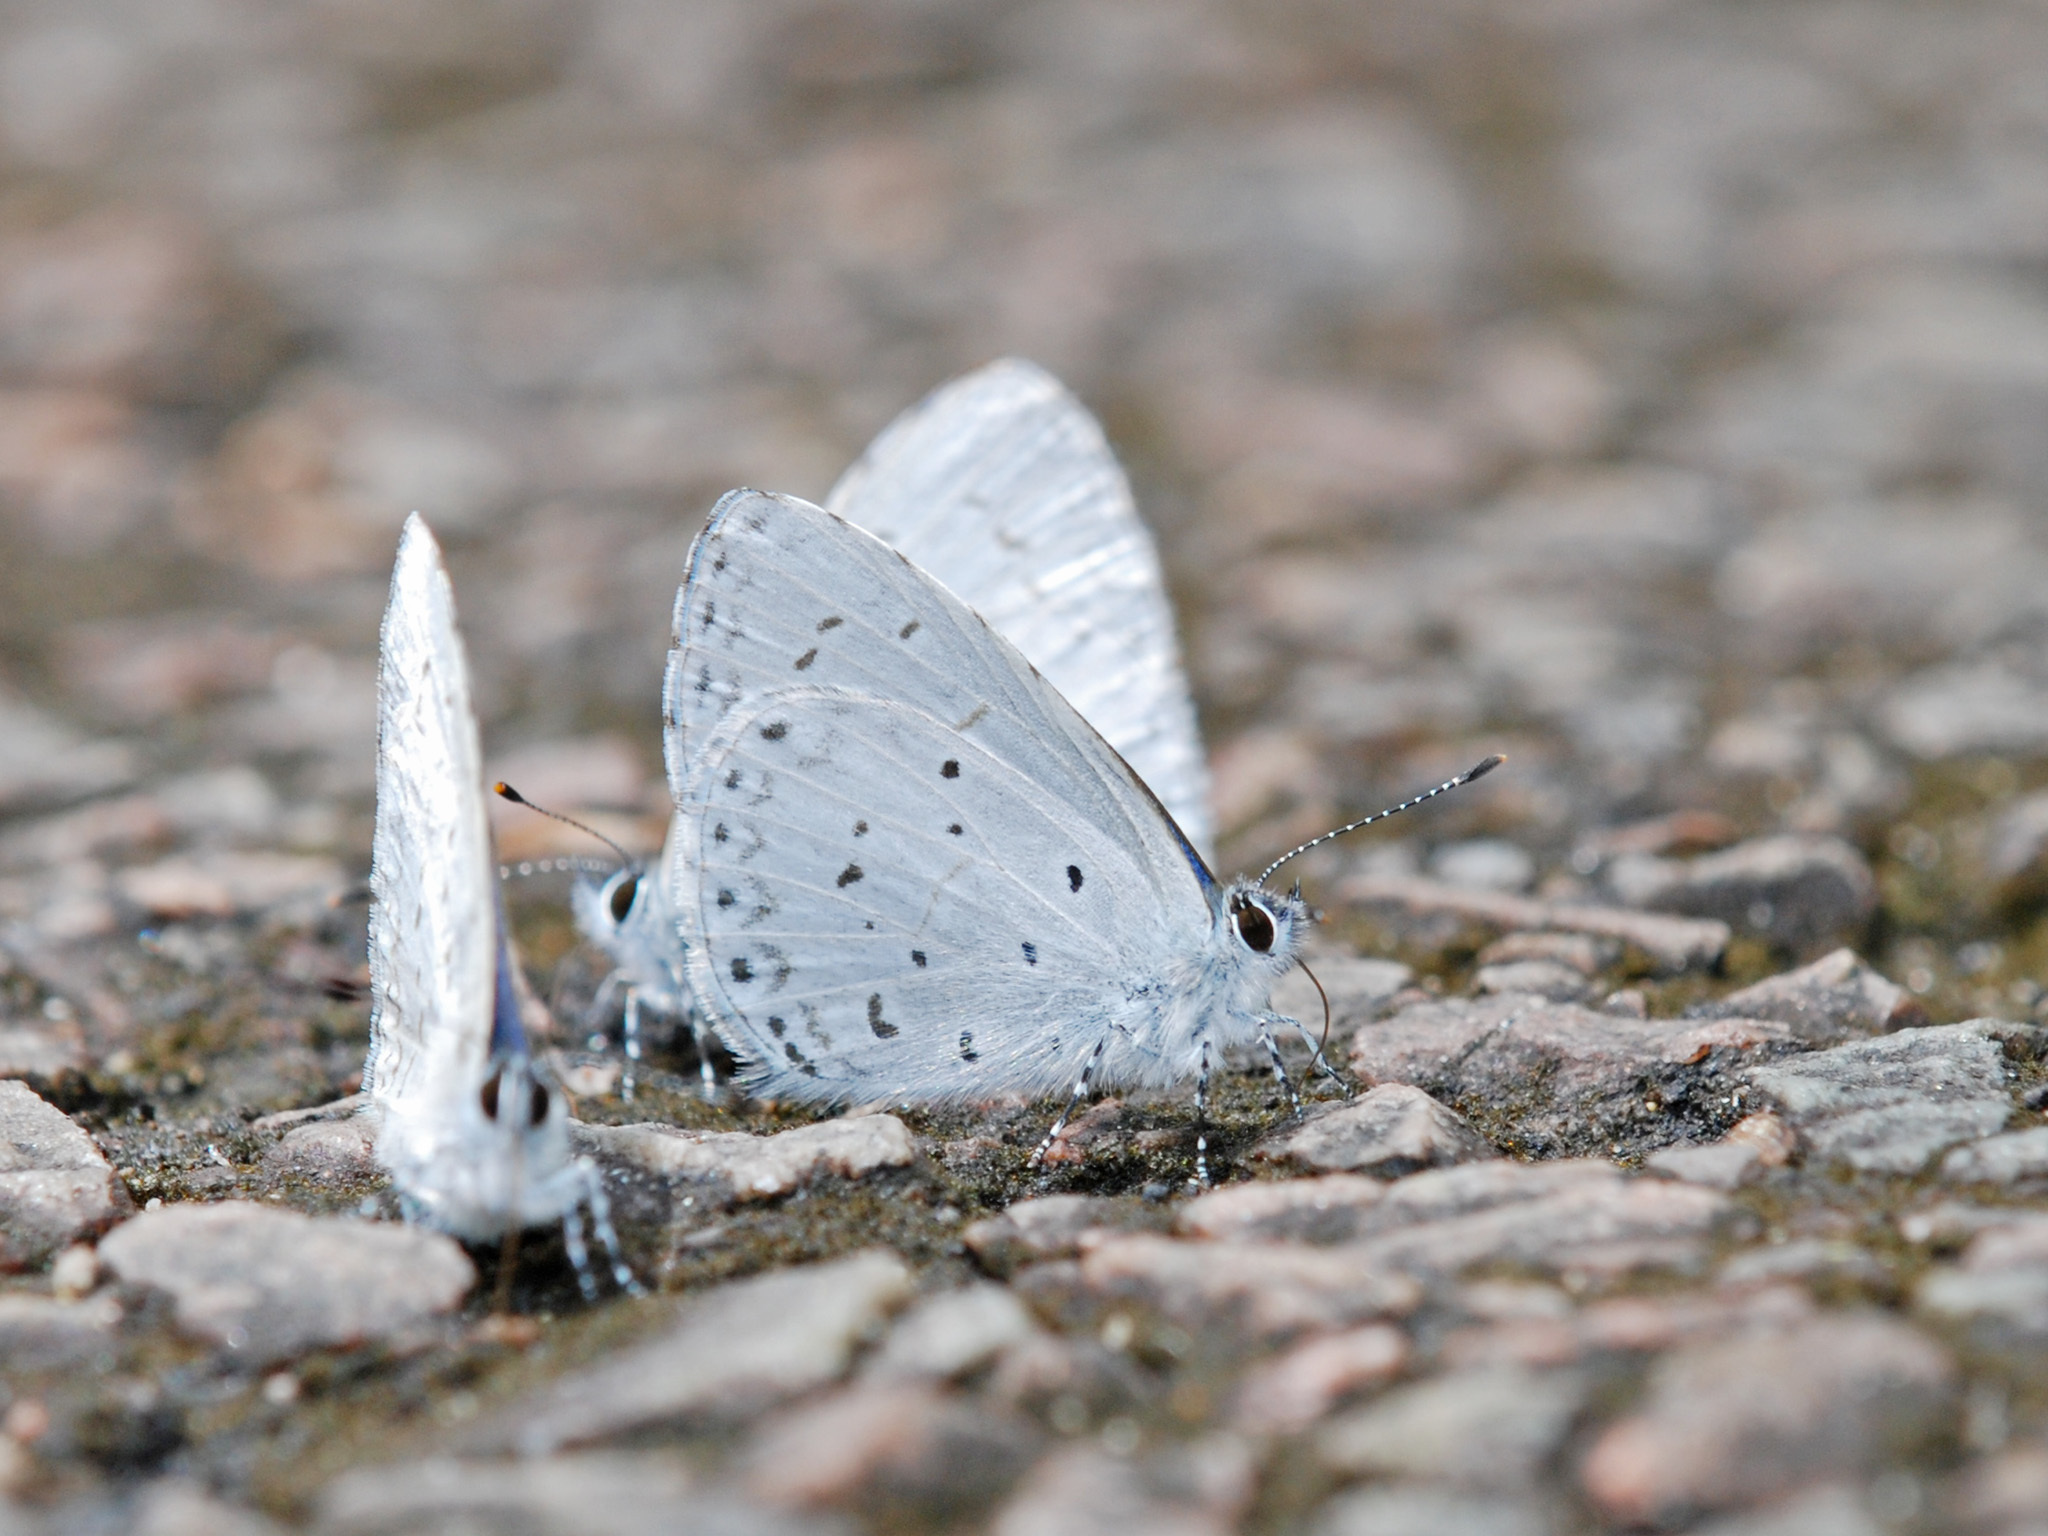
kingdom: Animalia
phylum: Arthropoda
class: Insecta
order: Lepidoptera
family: Lycaenidae
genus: Udara
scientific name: Udara dilectus
